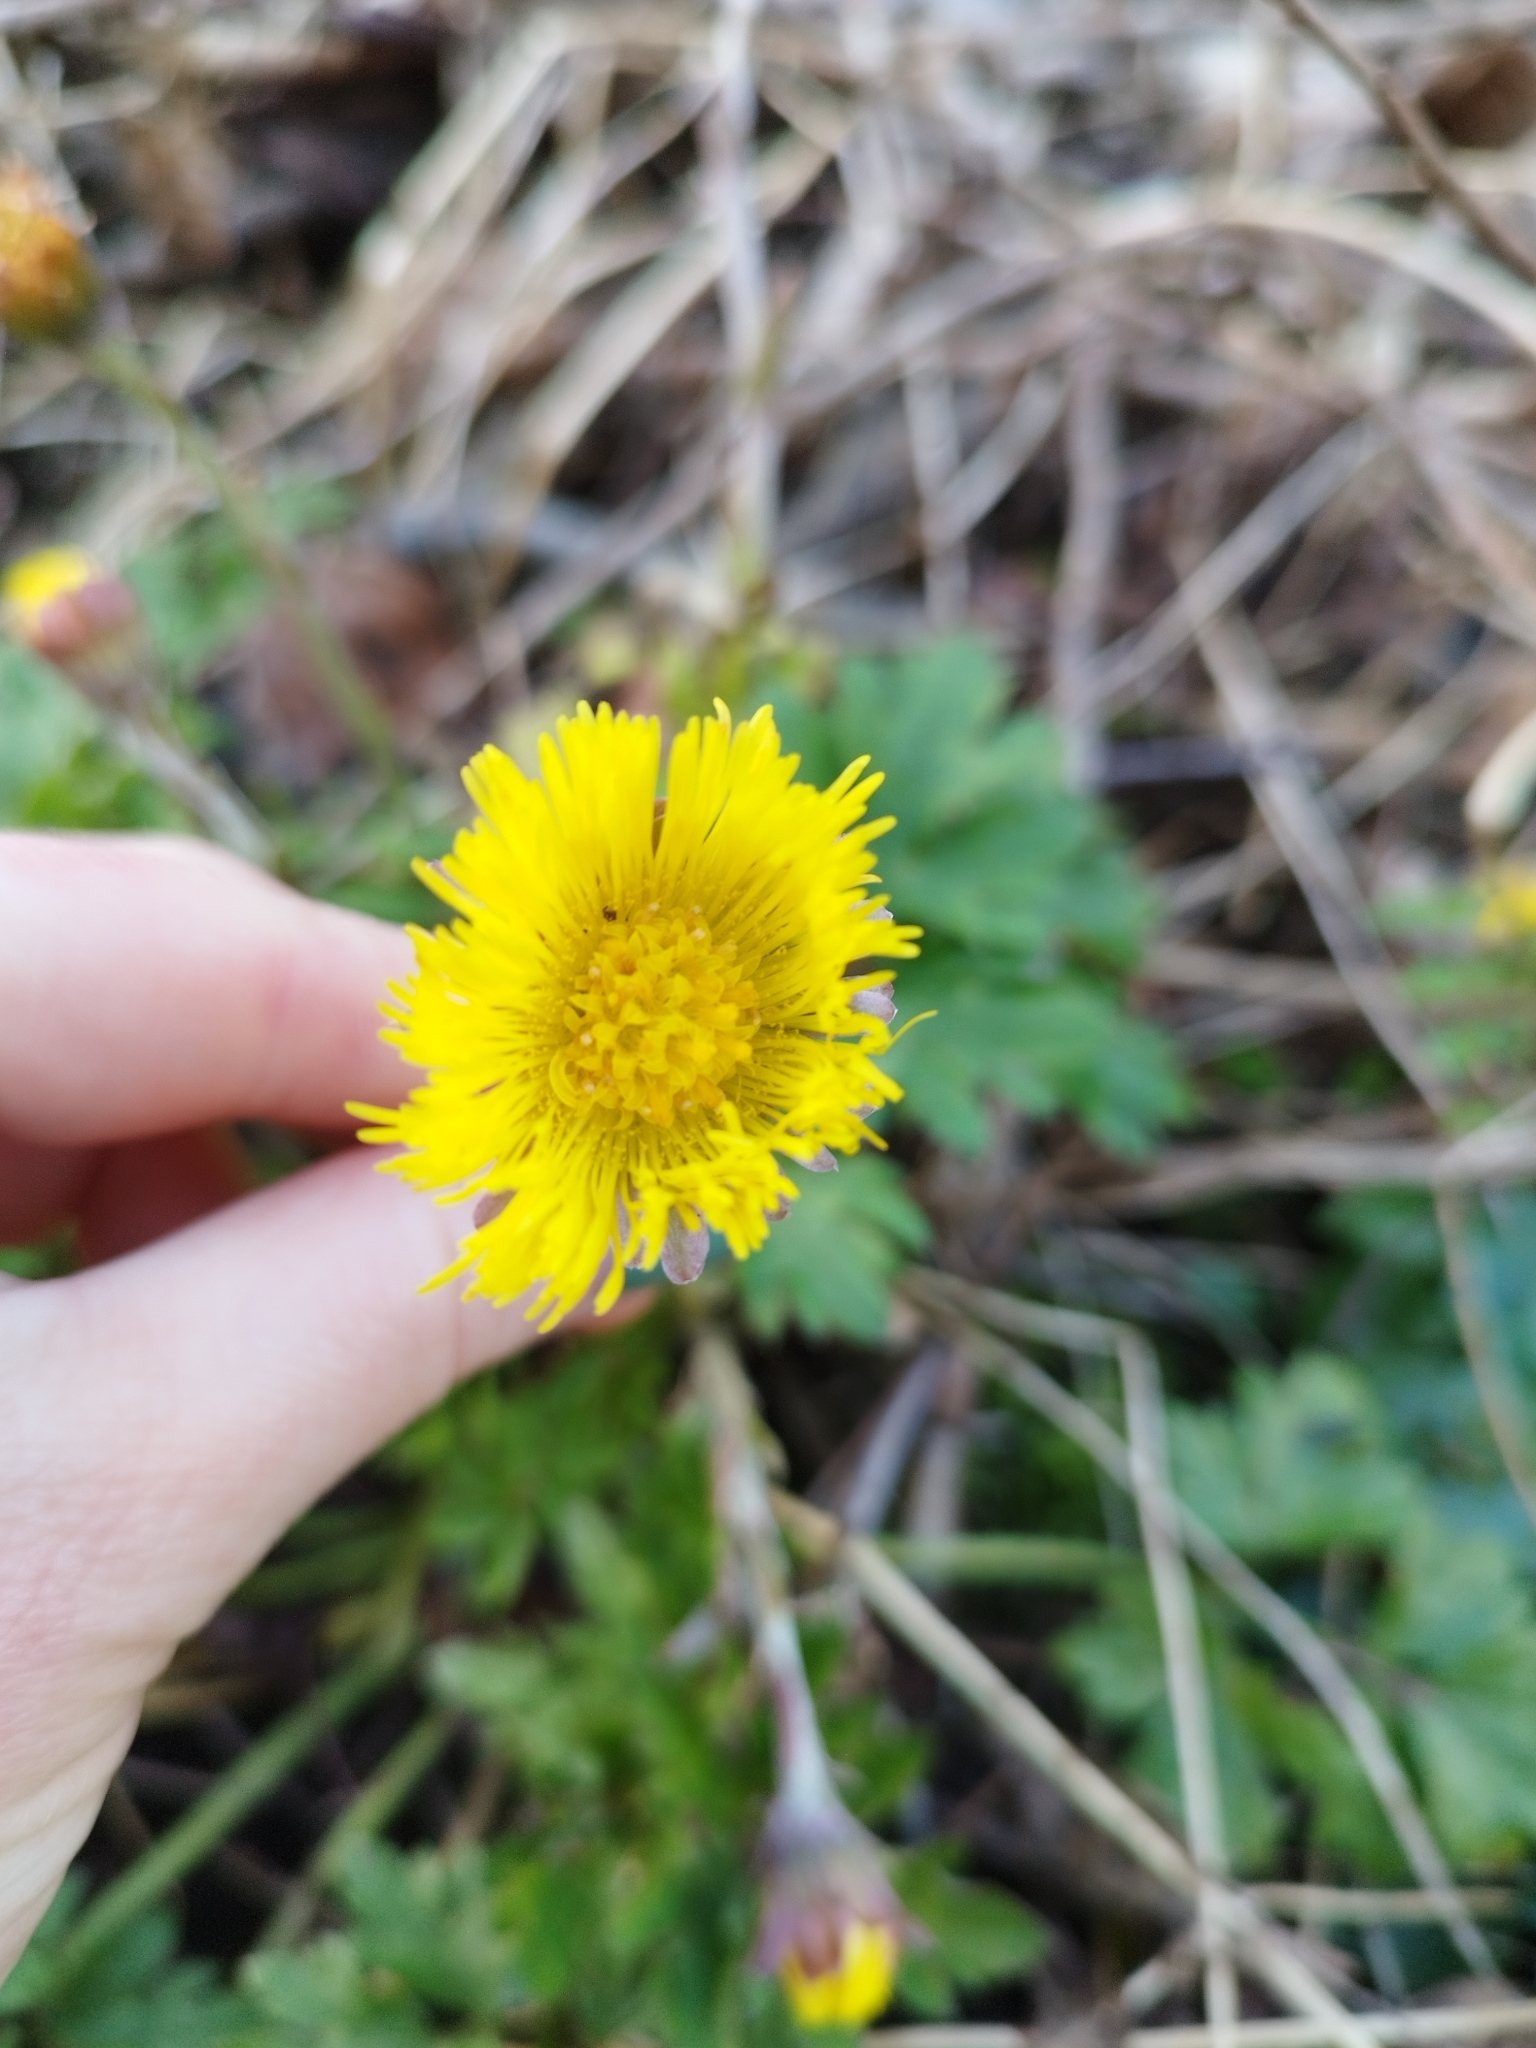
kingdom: Plantae
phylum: Tracheophyta
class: Magnoliopsida
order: Asterales
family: Asteraceae
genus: Tussilago
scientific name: Tussilago farfara
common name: Coltsfoot
